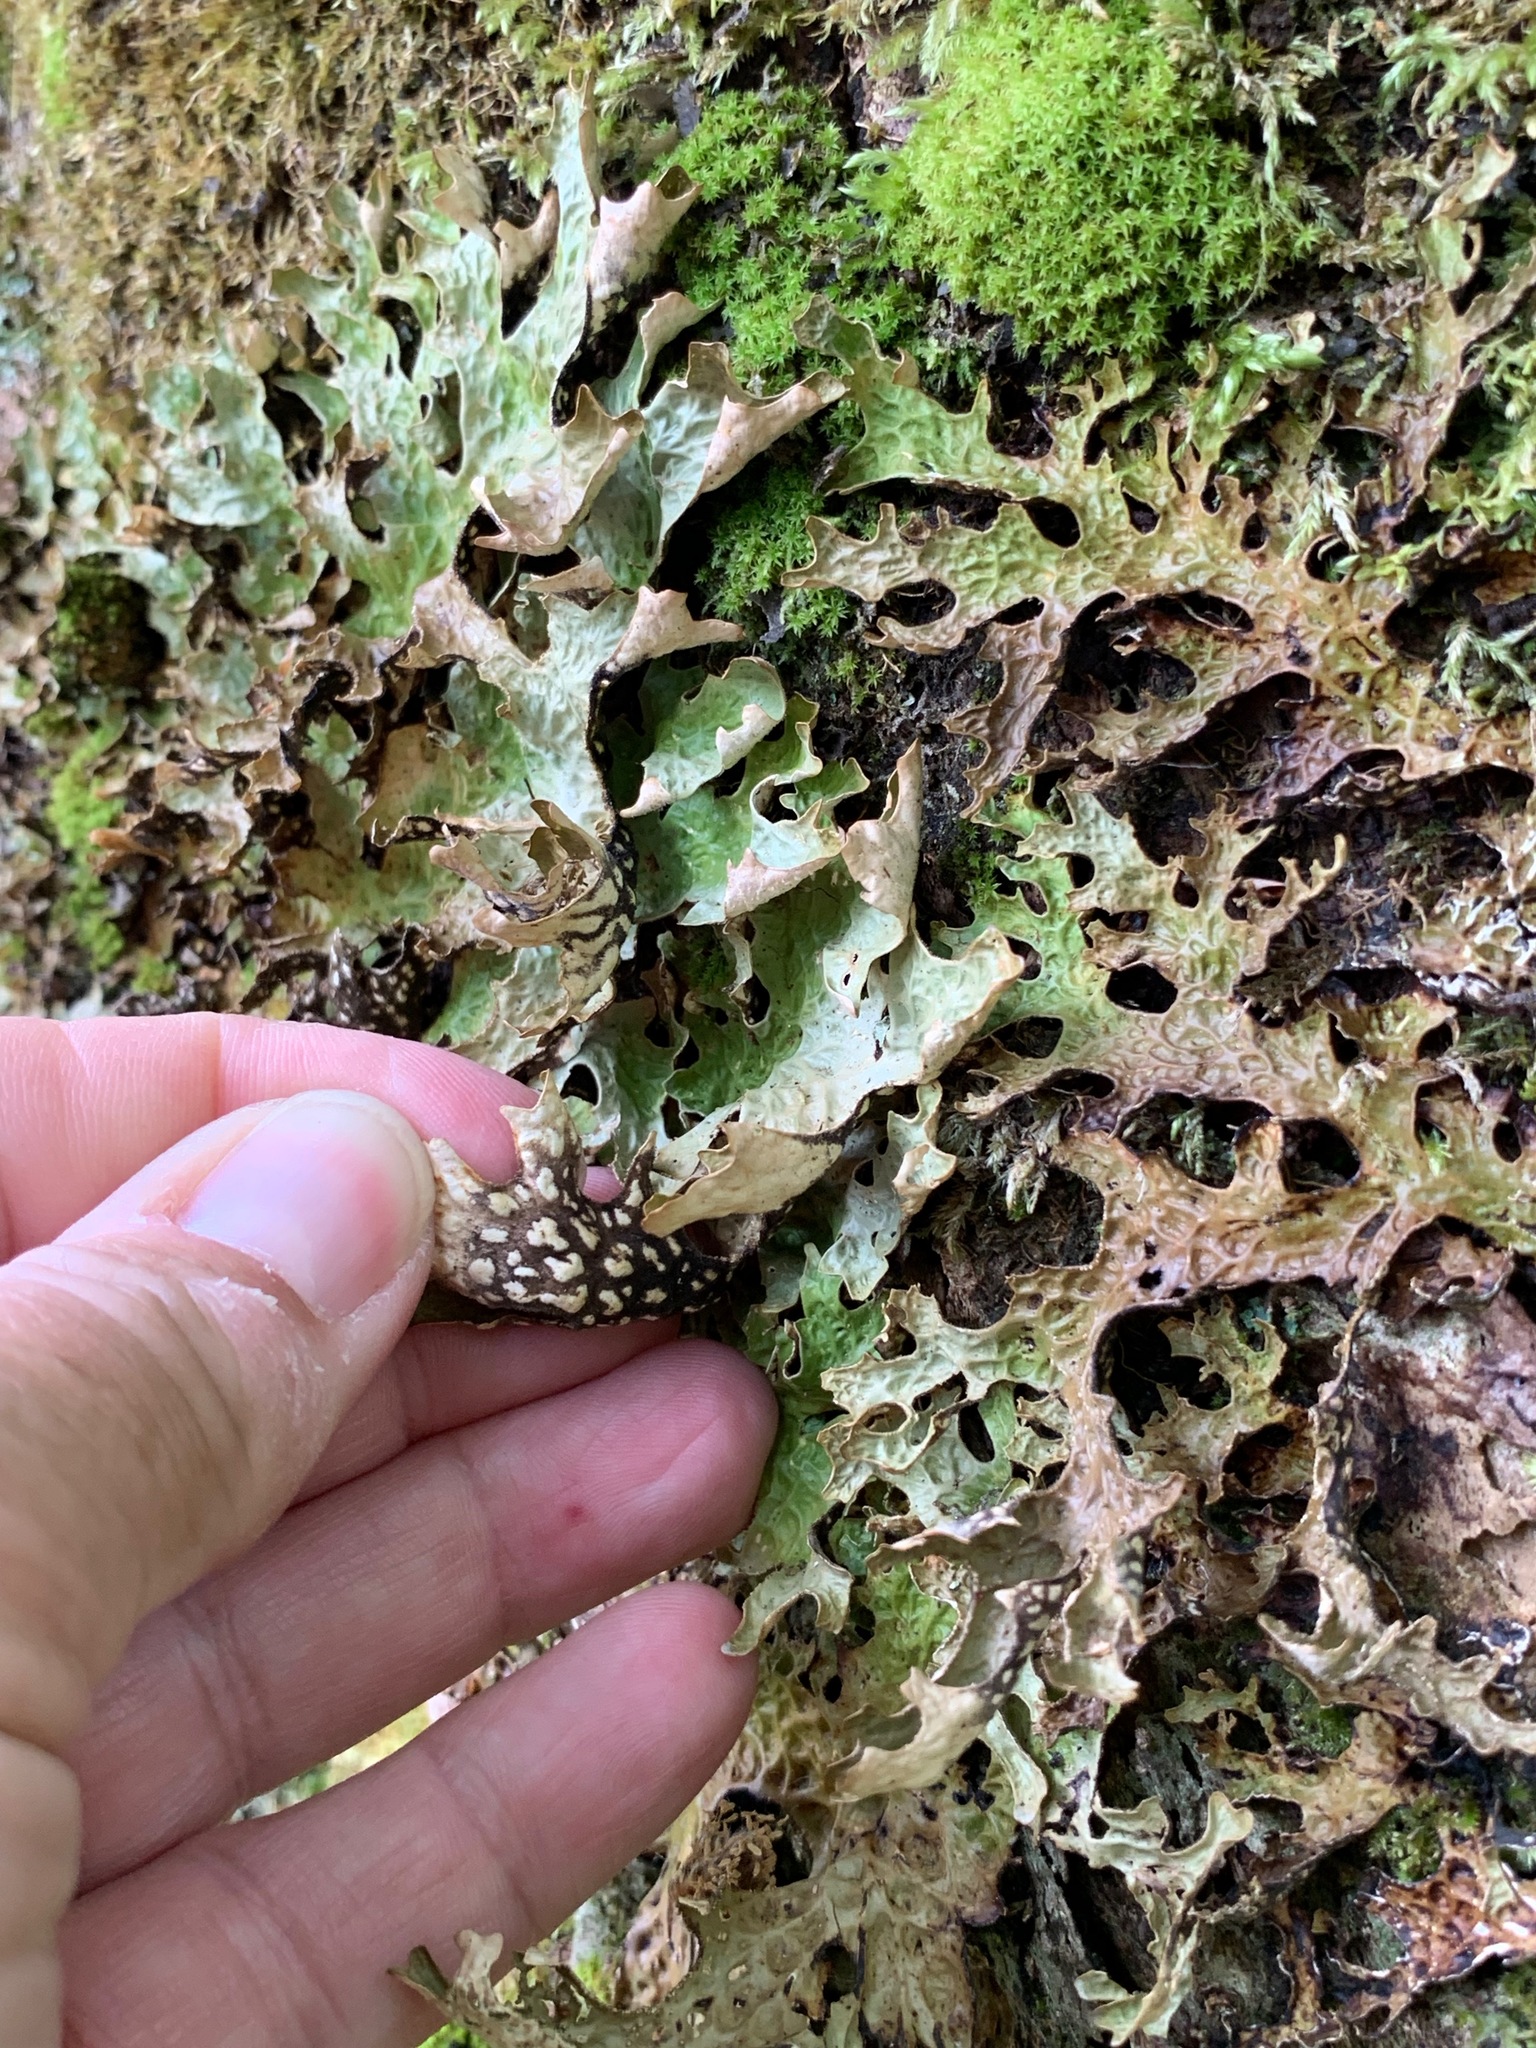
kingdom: Fungi
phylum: Ascomycota
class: Lecanoromycetes
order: Peltigerales
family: Lobariaceae
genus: Lobaria
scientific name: Lobaria pulmonaria
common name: Lungwort
